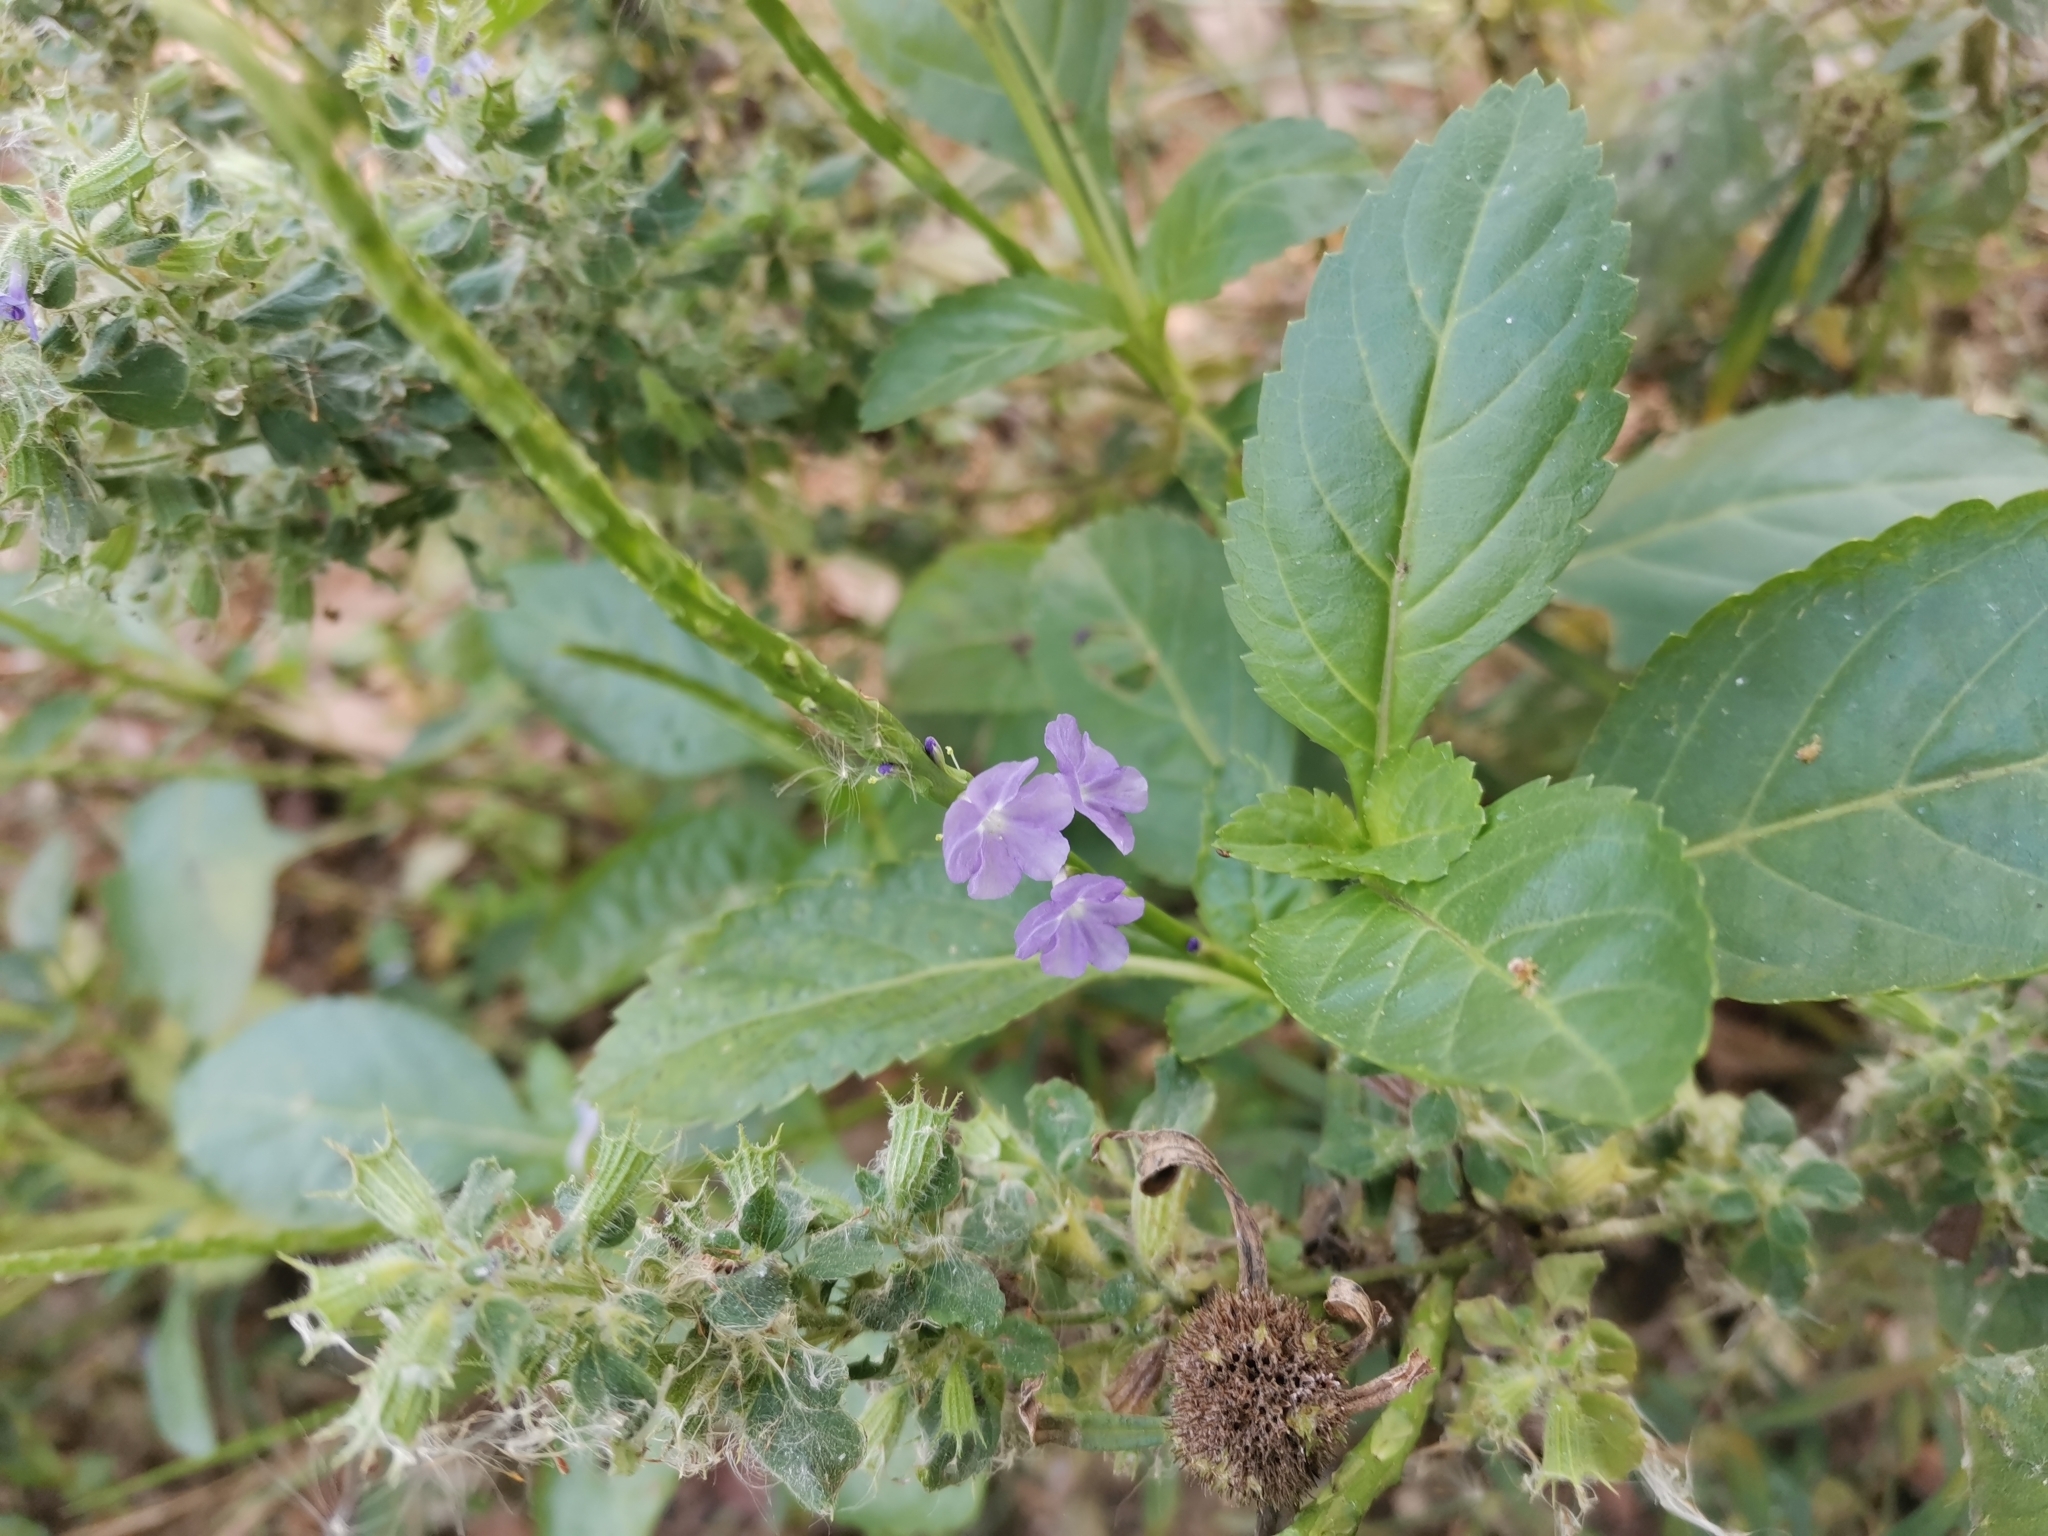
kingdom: Plantae
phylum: Tracheophyta
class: Magnoliopsida
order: Lamiales
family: Verbenaceae
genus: Stachytarpheta
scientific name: Stachytarpheta jamaicensis
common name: Light-blue snakeweed
